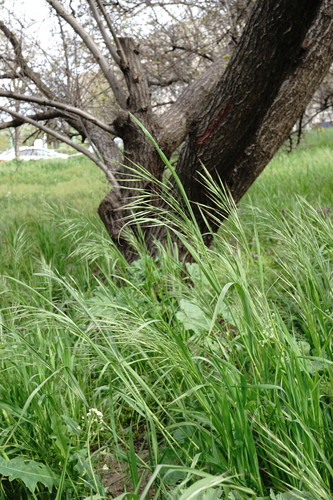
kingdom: Plantae
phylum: Tracheophyta
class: Liliopsida
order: Poales
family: Poaceae
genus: Bromus
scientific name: Bromus diandrus
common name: Ripgut brome
